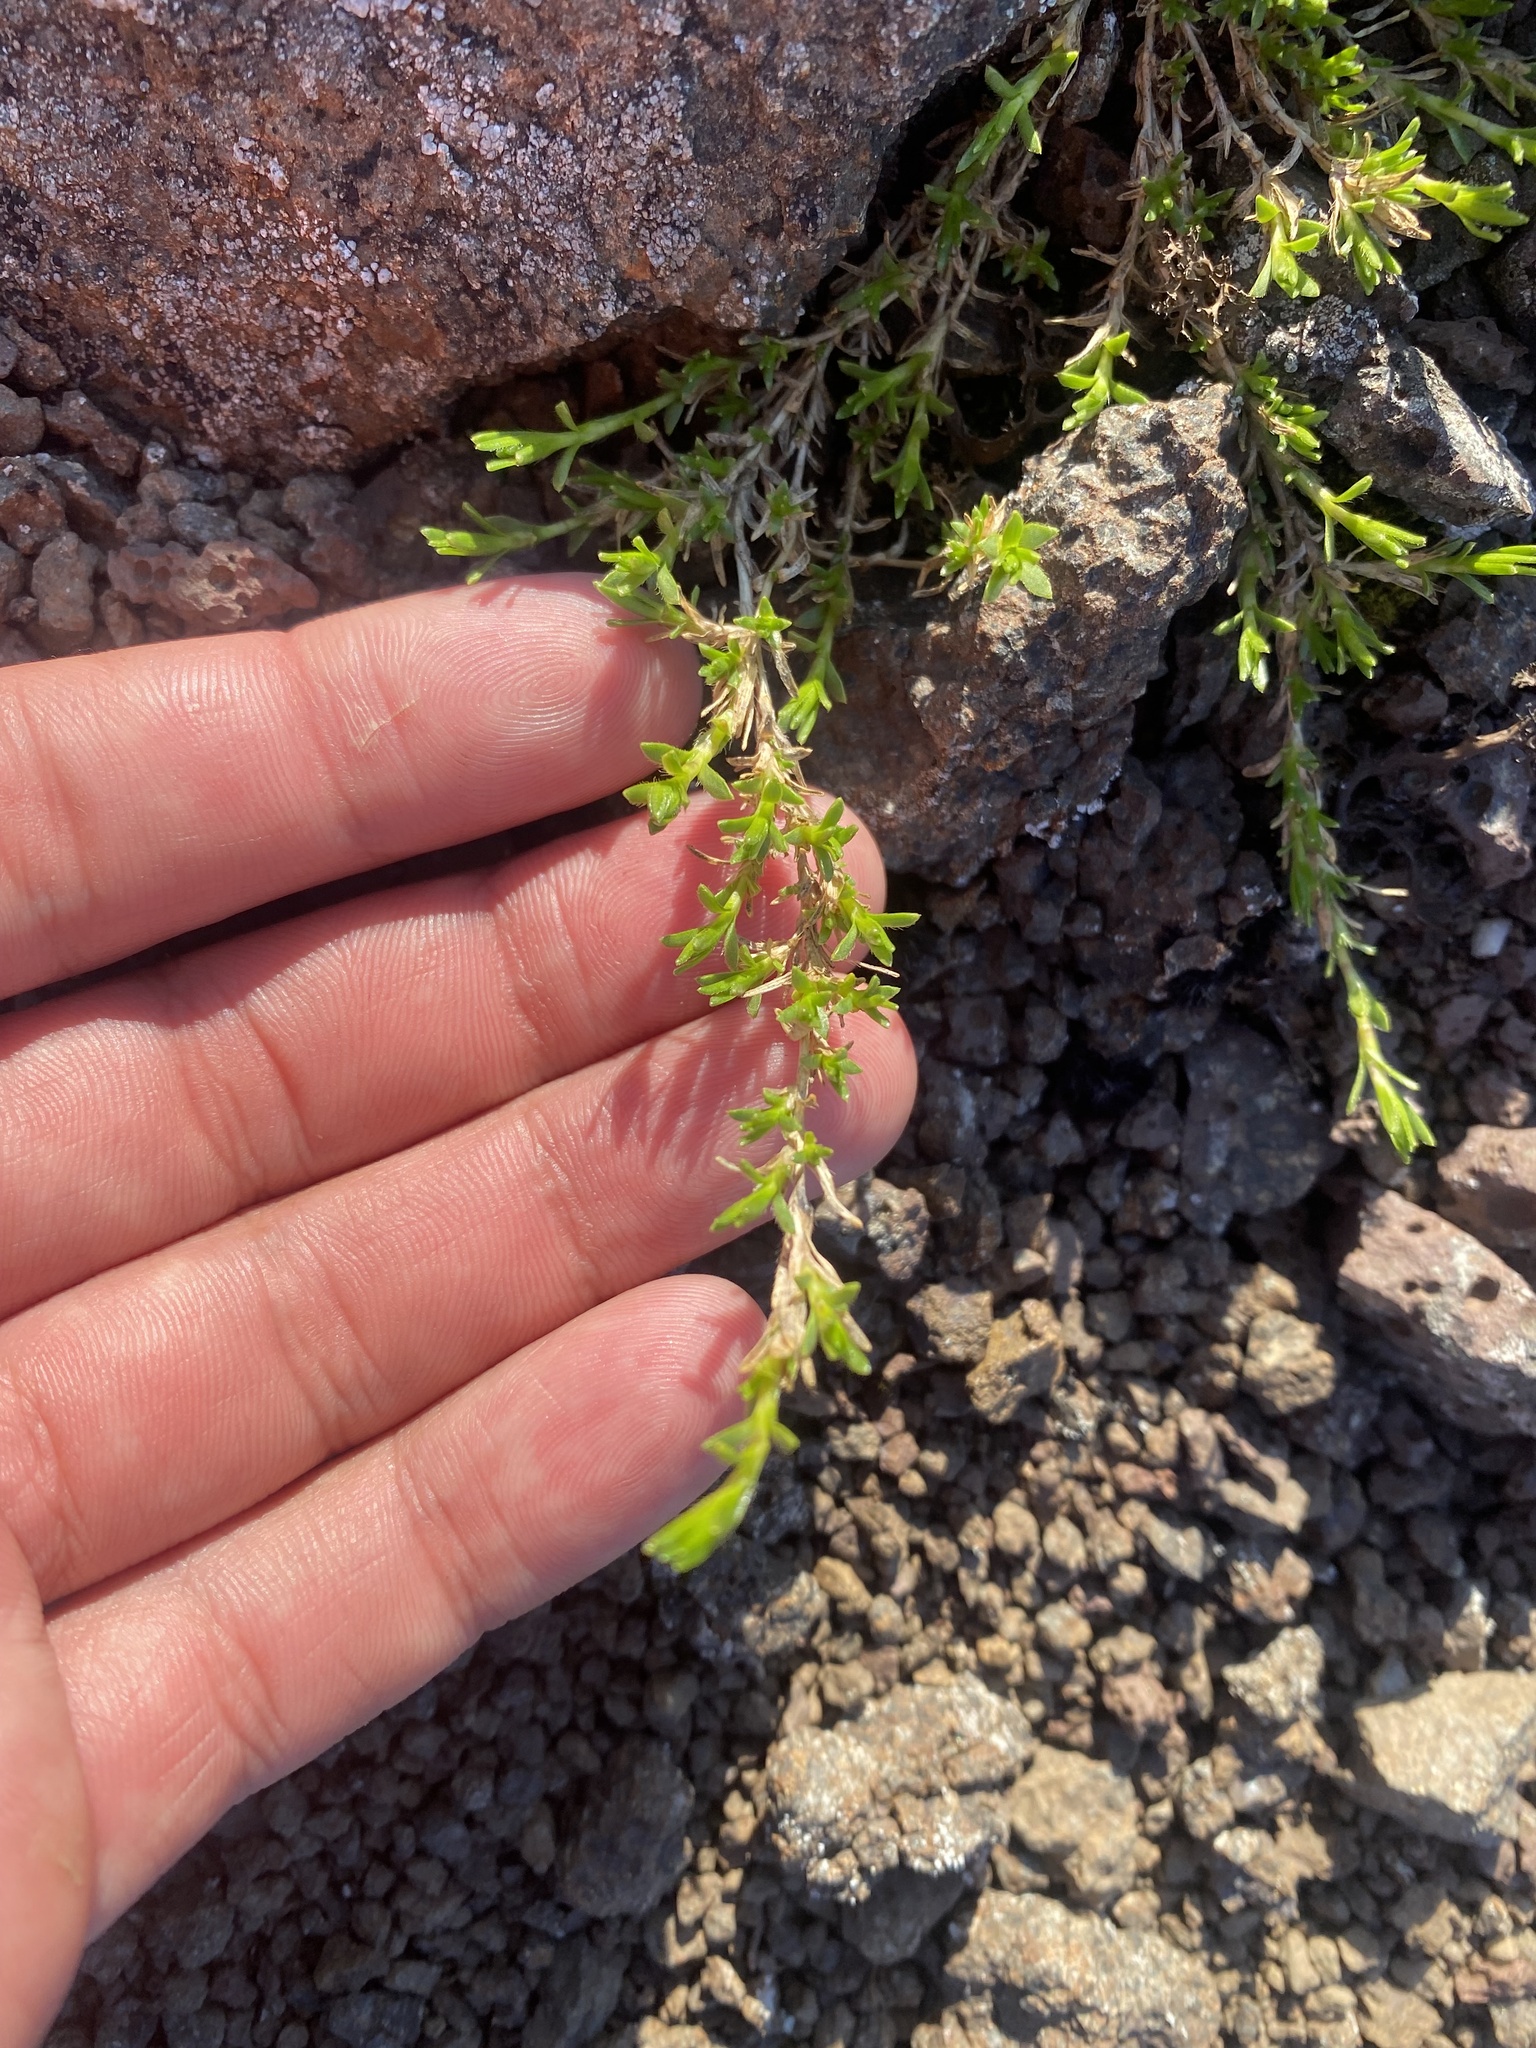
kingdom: Plantae
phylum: Tracheophyta
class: Magnoliopsida
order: Caryophyllales
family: Caryophyllaceae
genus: Pseudocherleria
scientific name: Pseudocherleria macrocarpa
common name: Large-fruit sandwort
